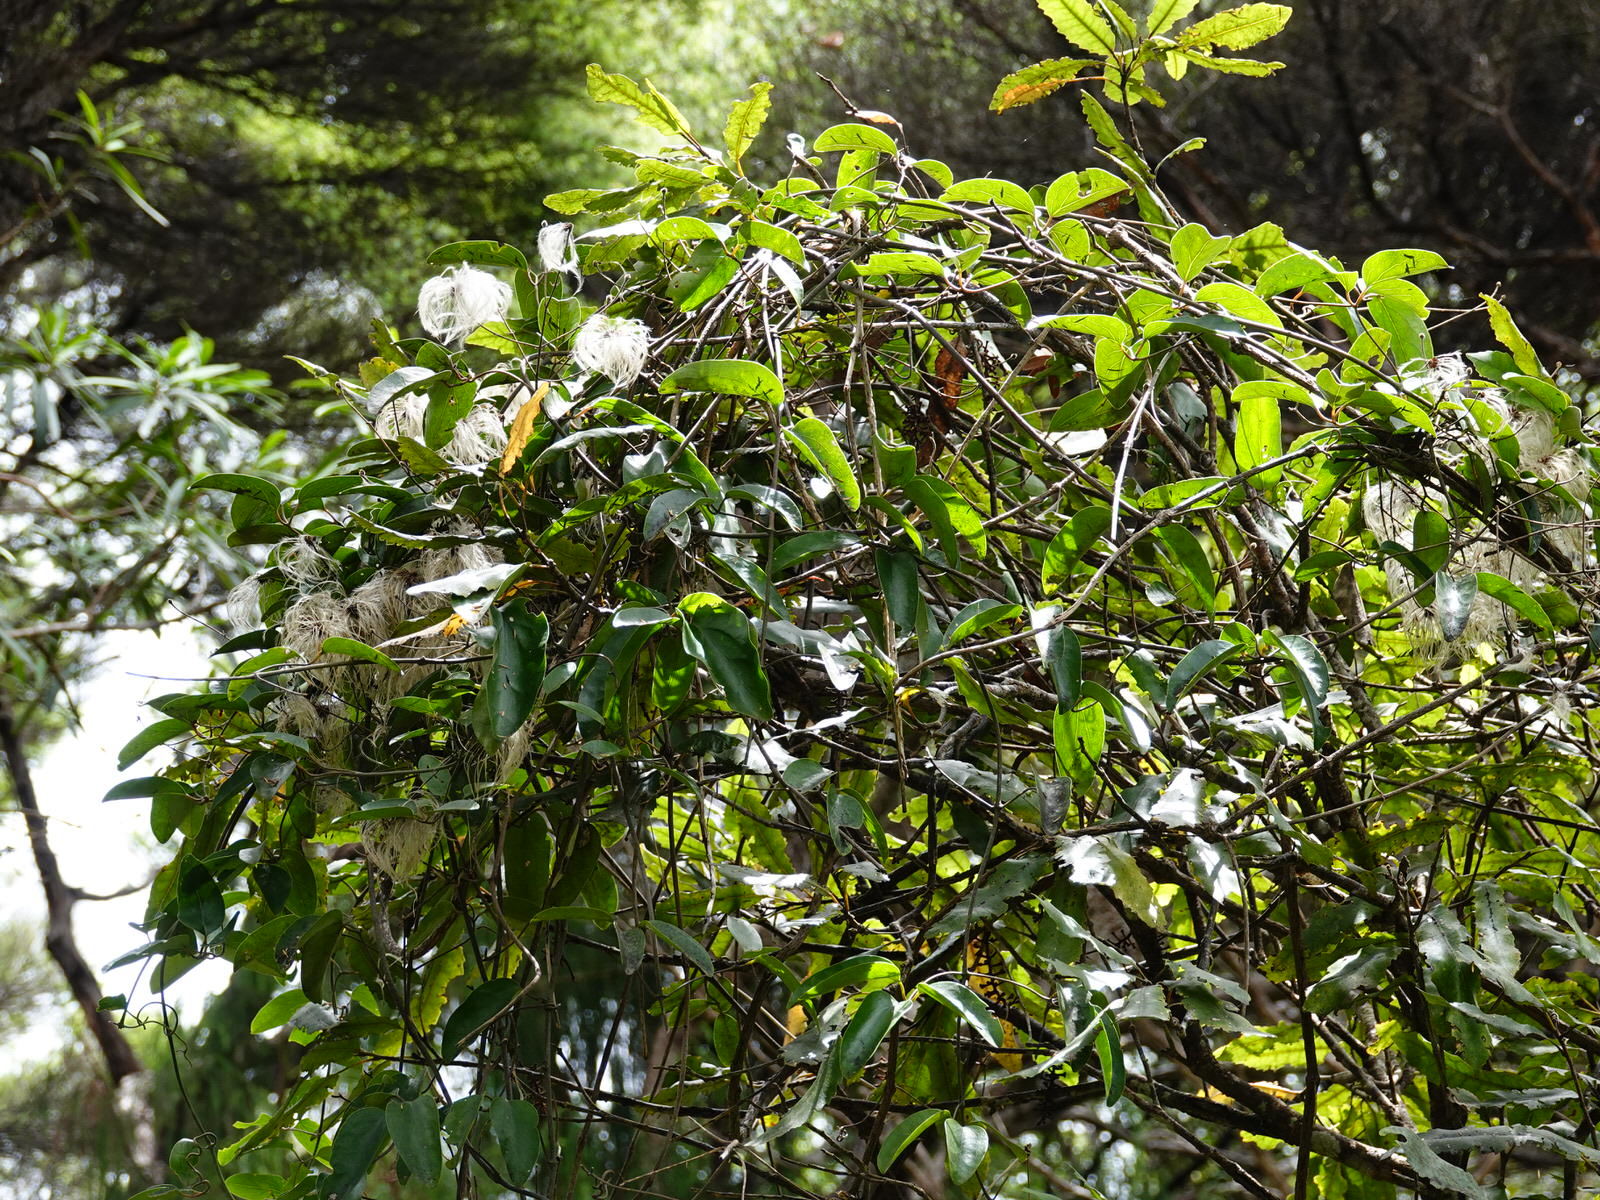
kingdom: Plantae
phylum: Tracheophyta
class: Magnoliopsida
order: Ranunculales
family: Ranunculaceae
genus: Clematis
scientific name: Clematis paniculata
